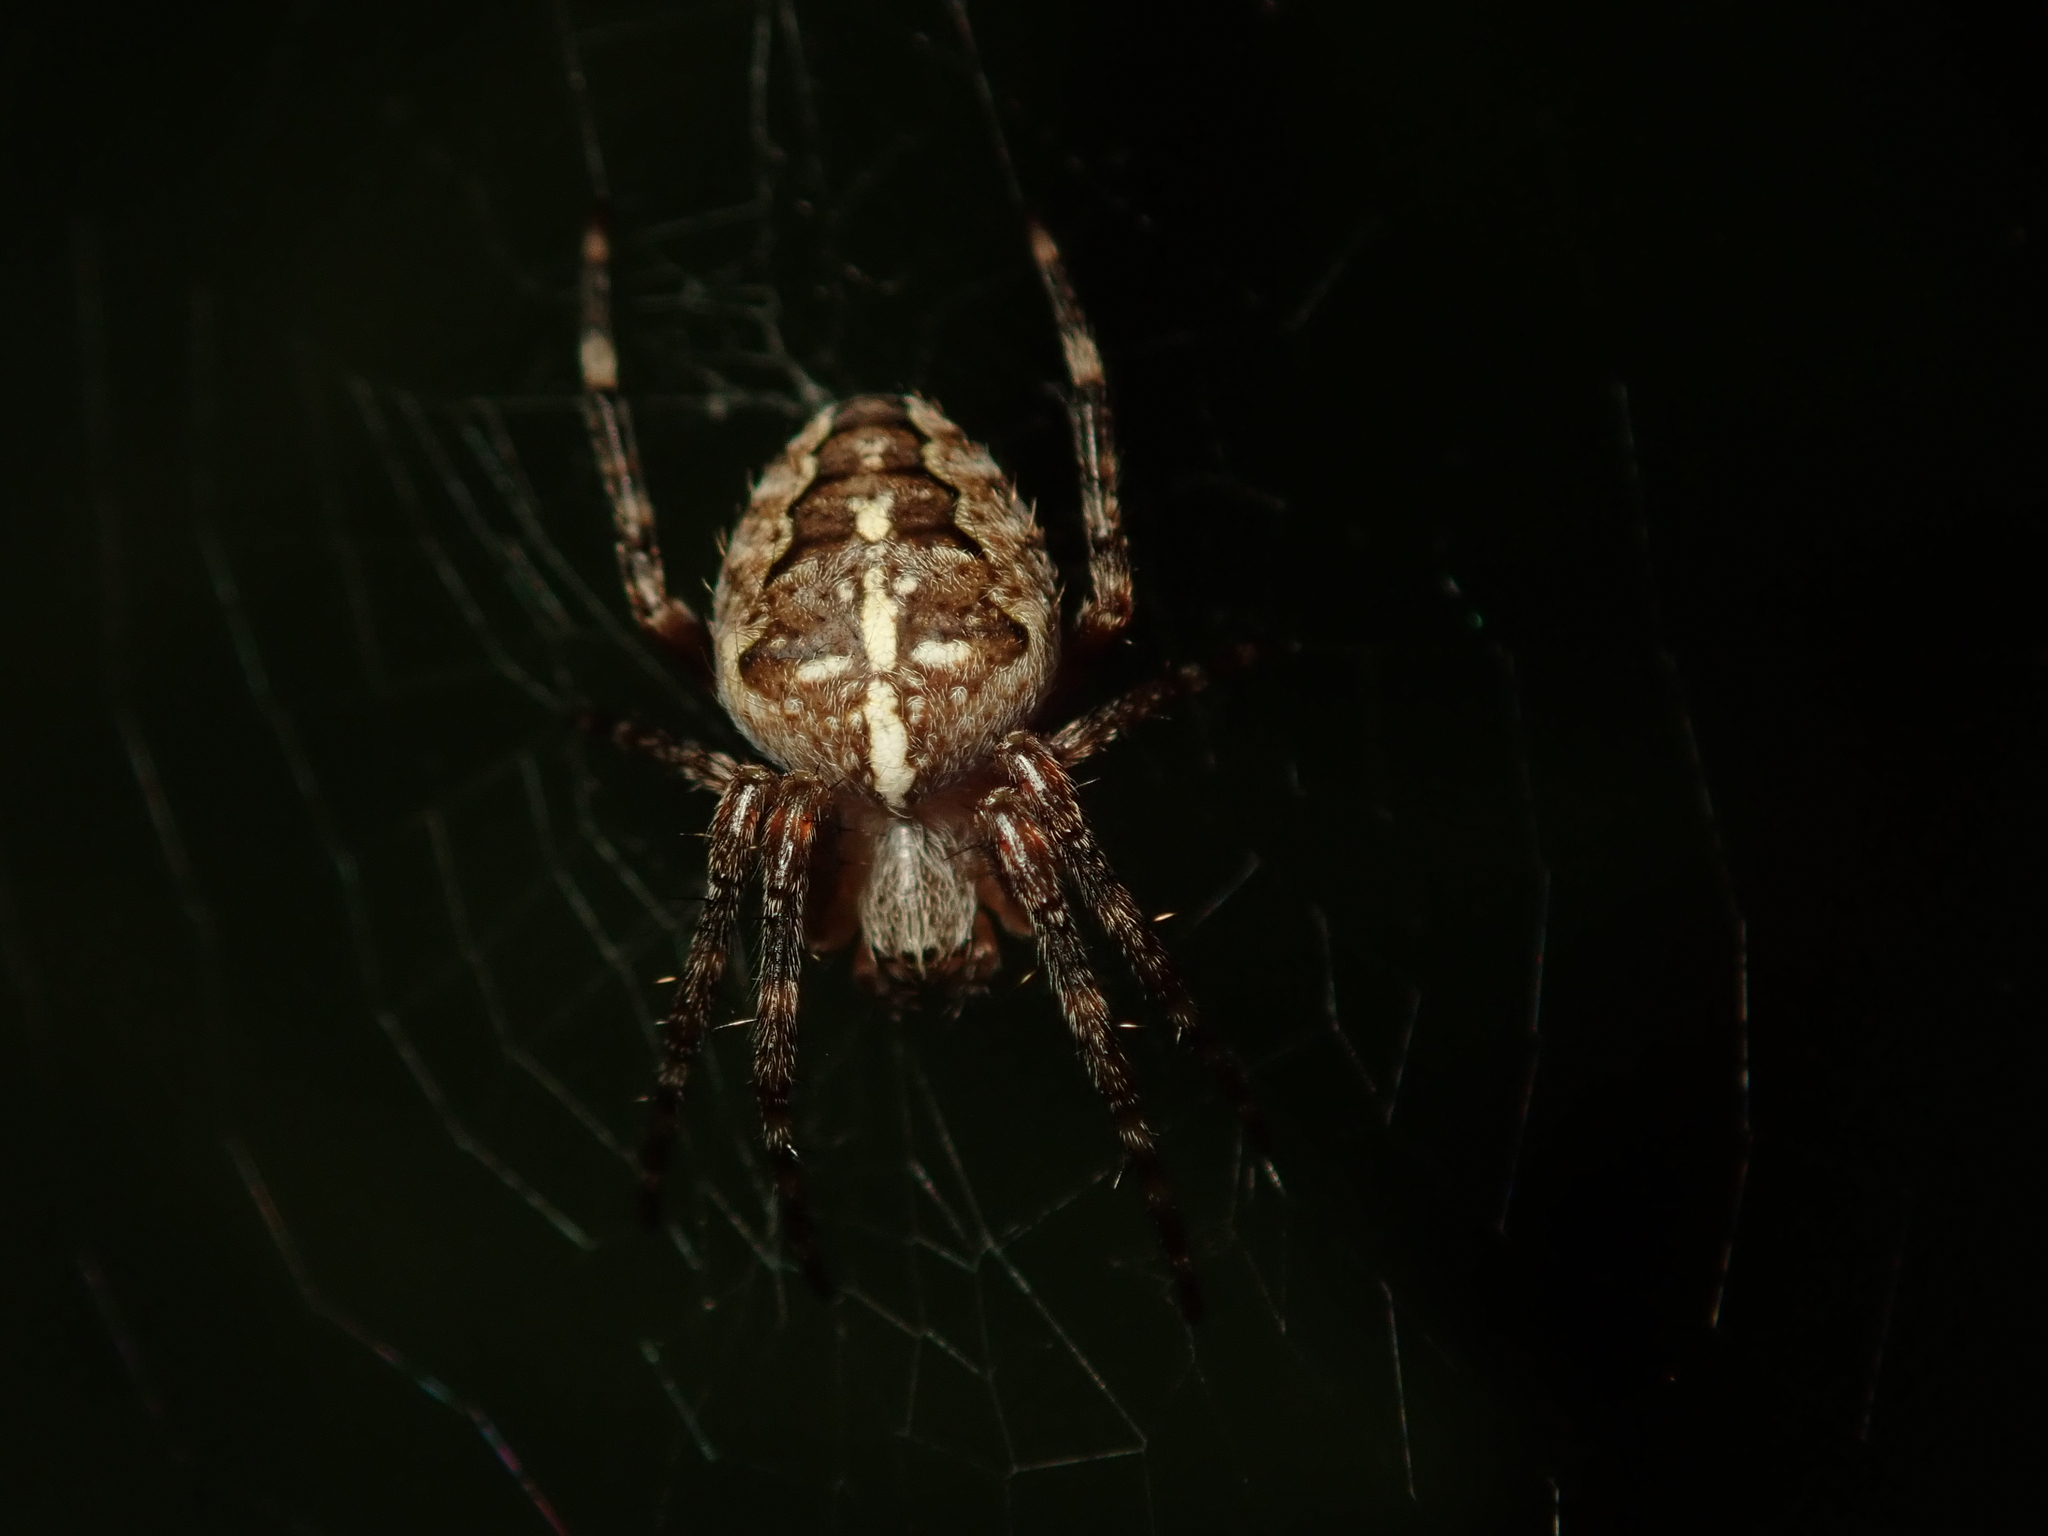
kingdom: Animalia
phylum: Arthropoda
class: Arachnida
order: Araneae
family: Araneidae
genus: Araneus
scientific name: Araneus diadematus
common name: Cross orbweaver
